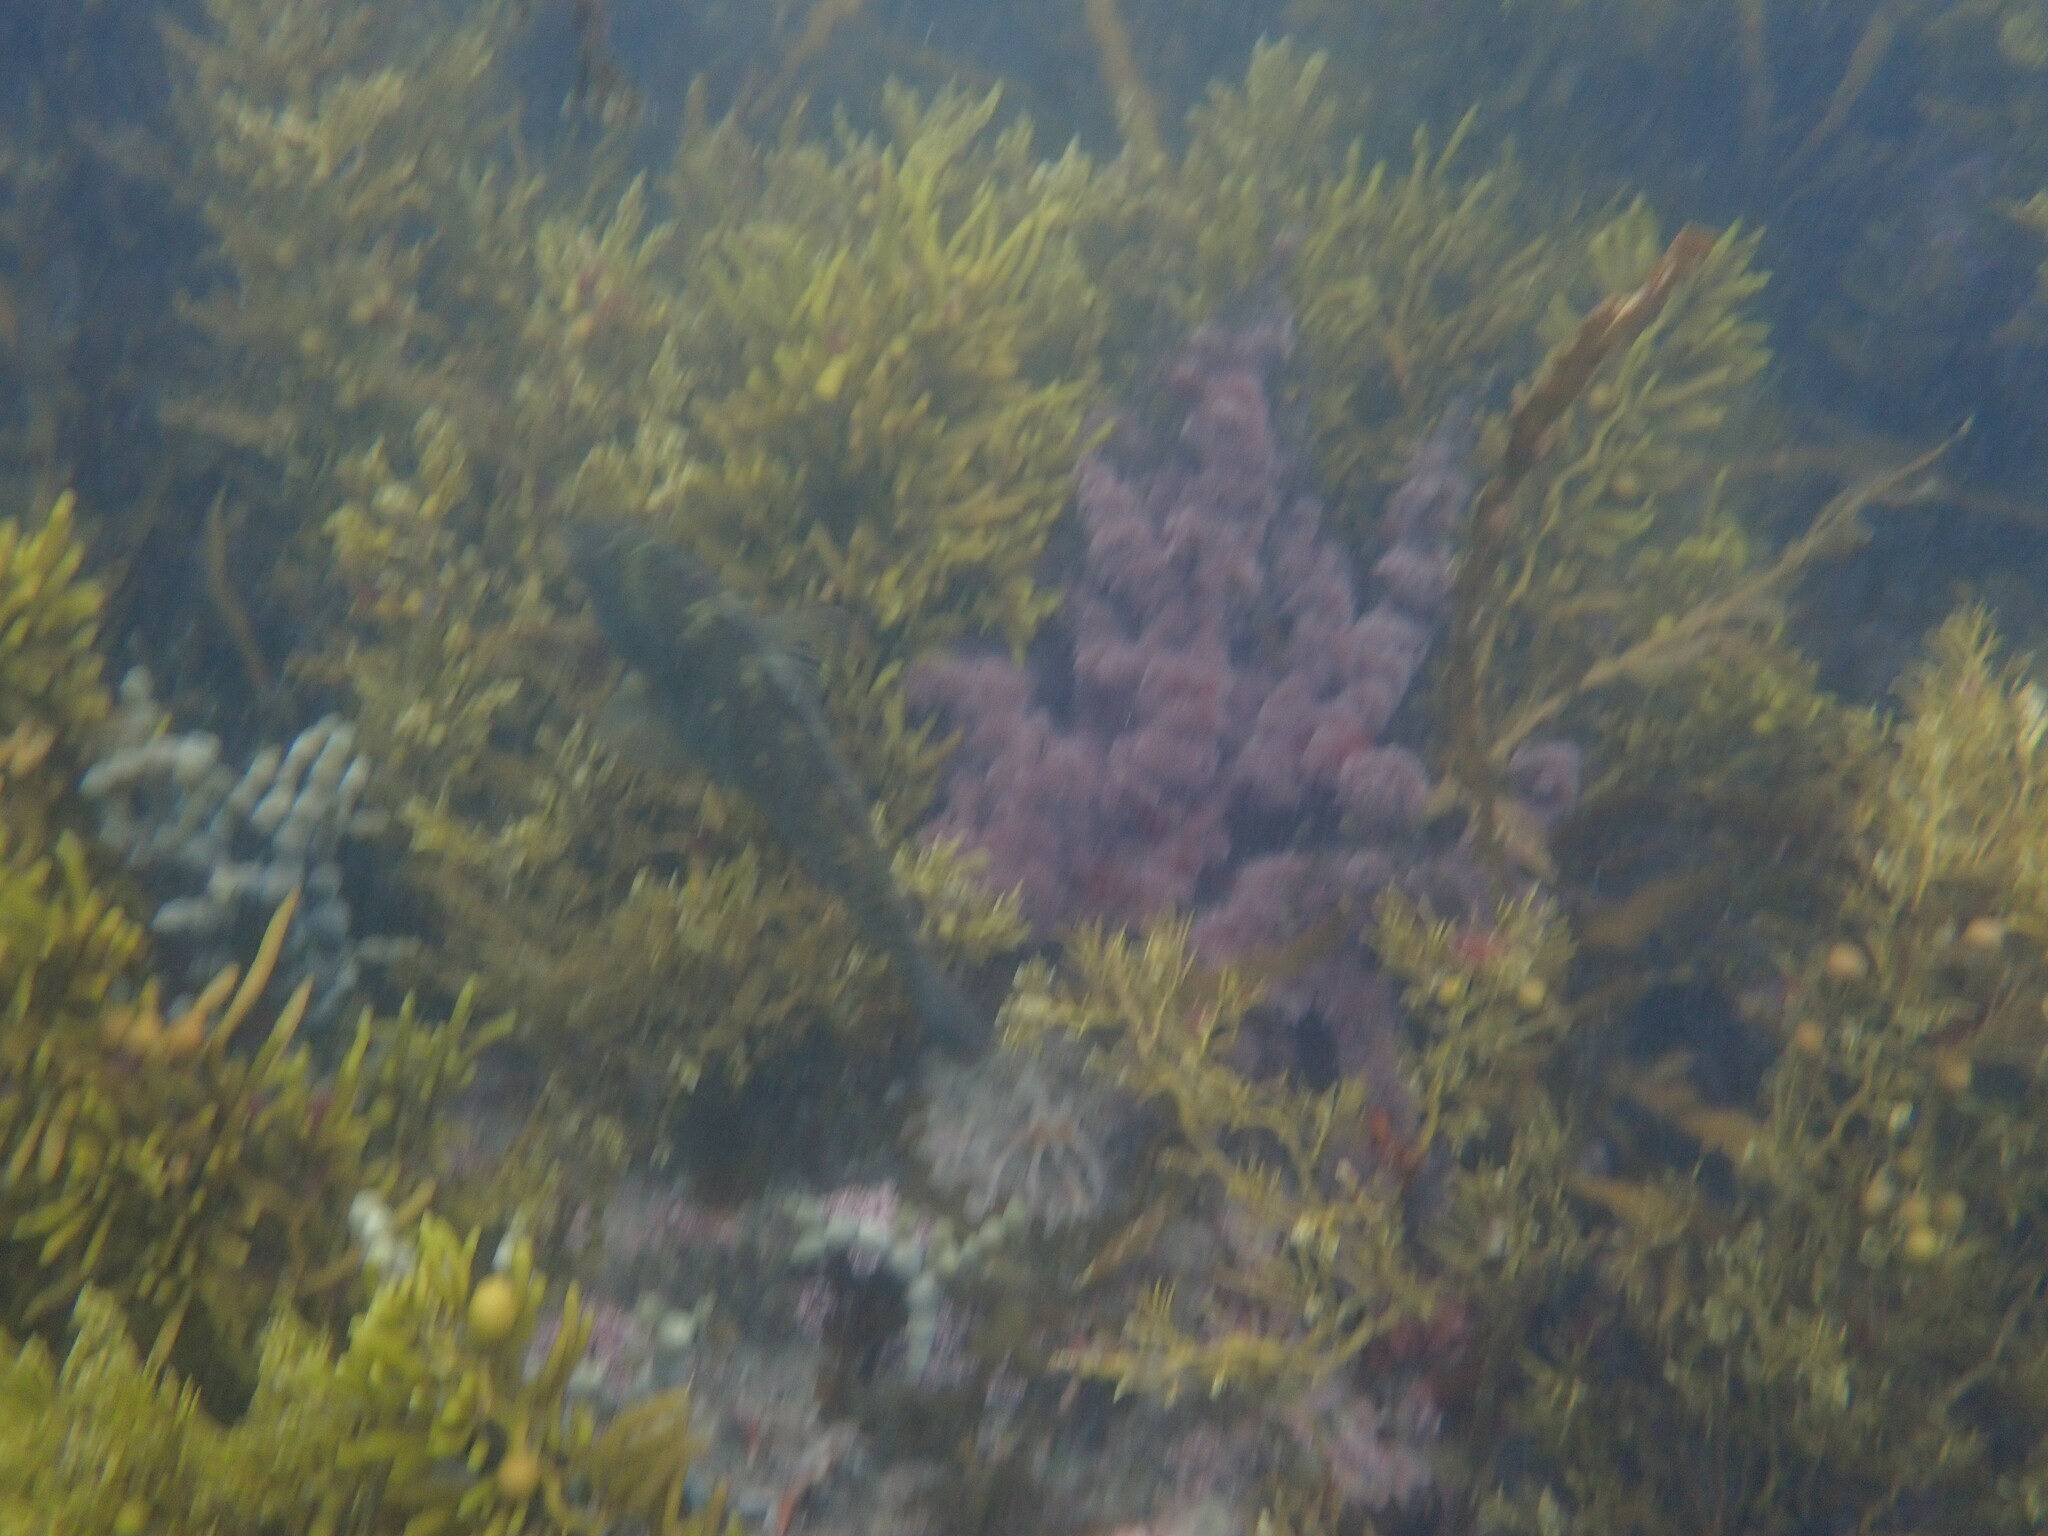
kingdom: Animalia
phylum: Chordata
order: Perciformes
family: Labridae
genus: Notolabrus
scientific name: Notolabrus fucicola
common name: Banded parrotfish
